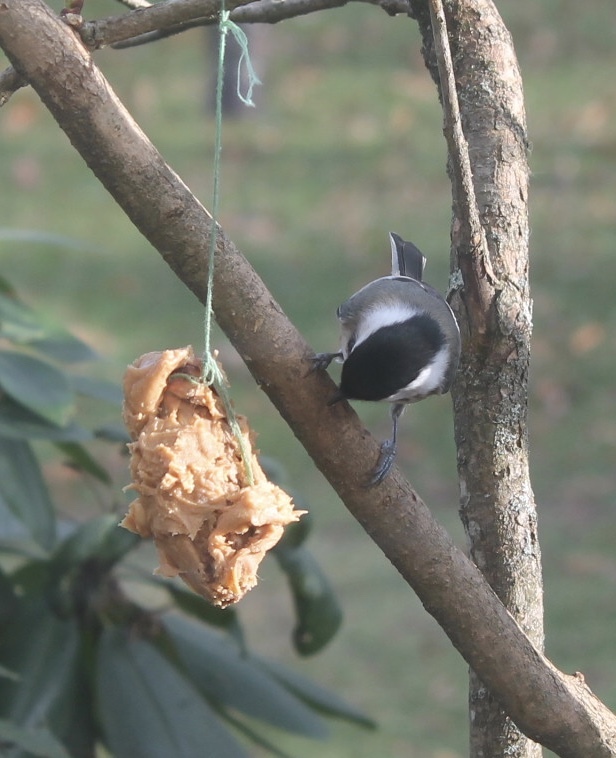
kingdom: Animalia
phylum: Chordata
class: Aves
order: Passeriformes
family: Paridae
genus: Poecile
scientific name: Poecile atricapillus
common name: Black-capped chickadee
